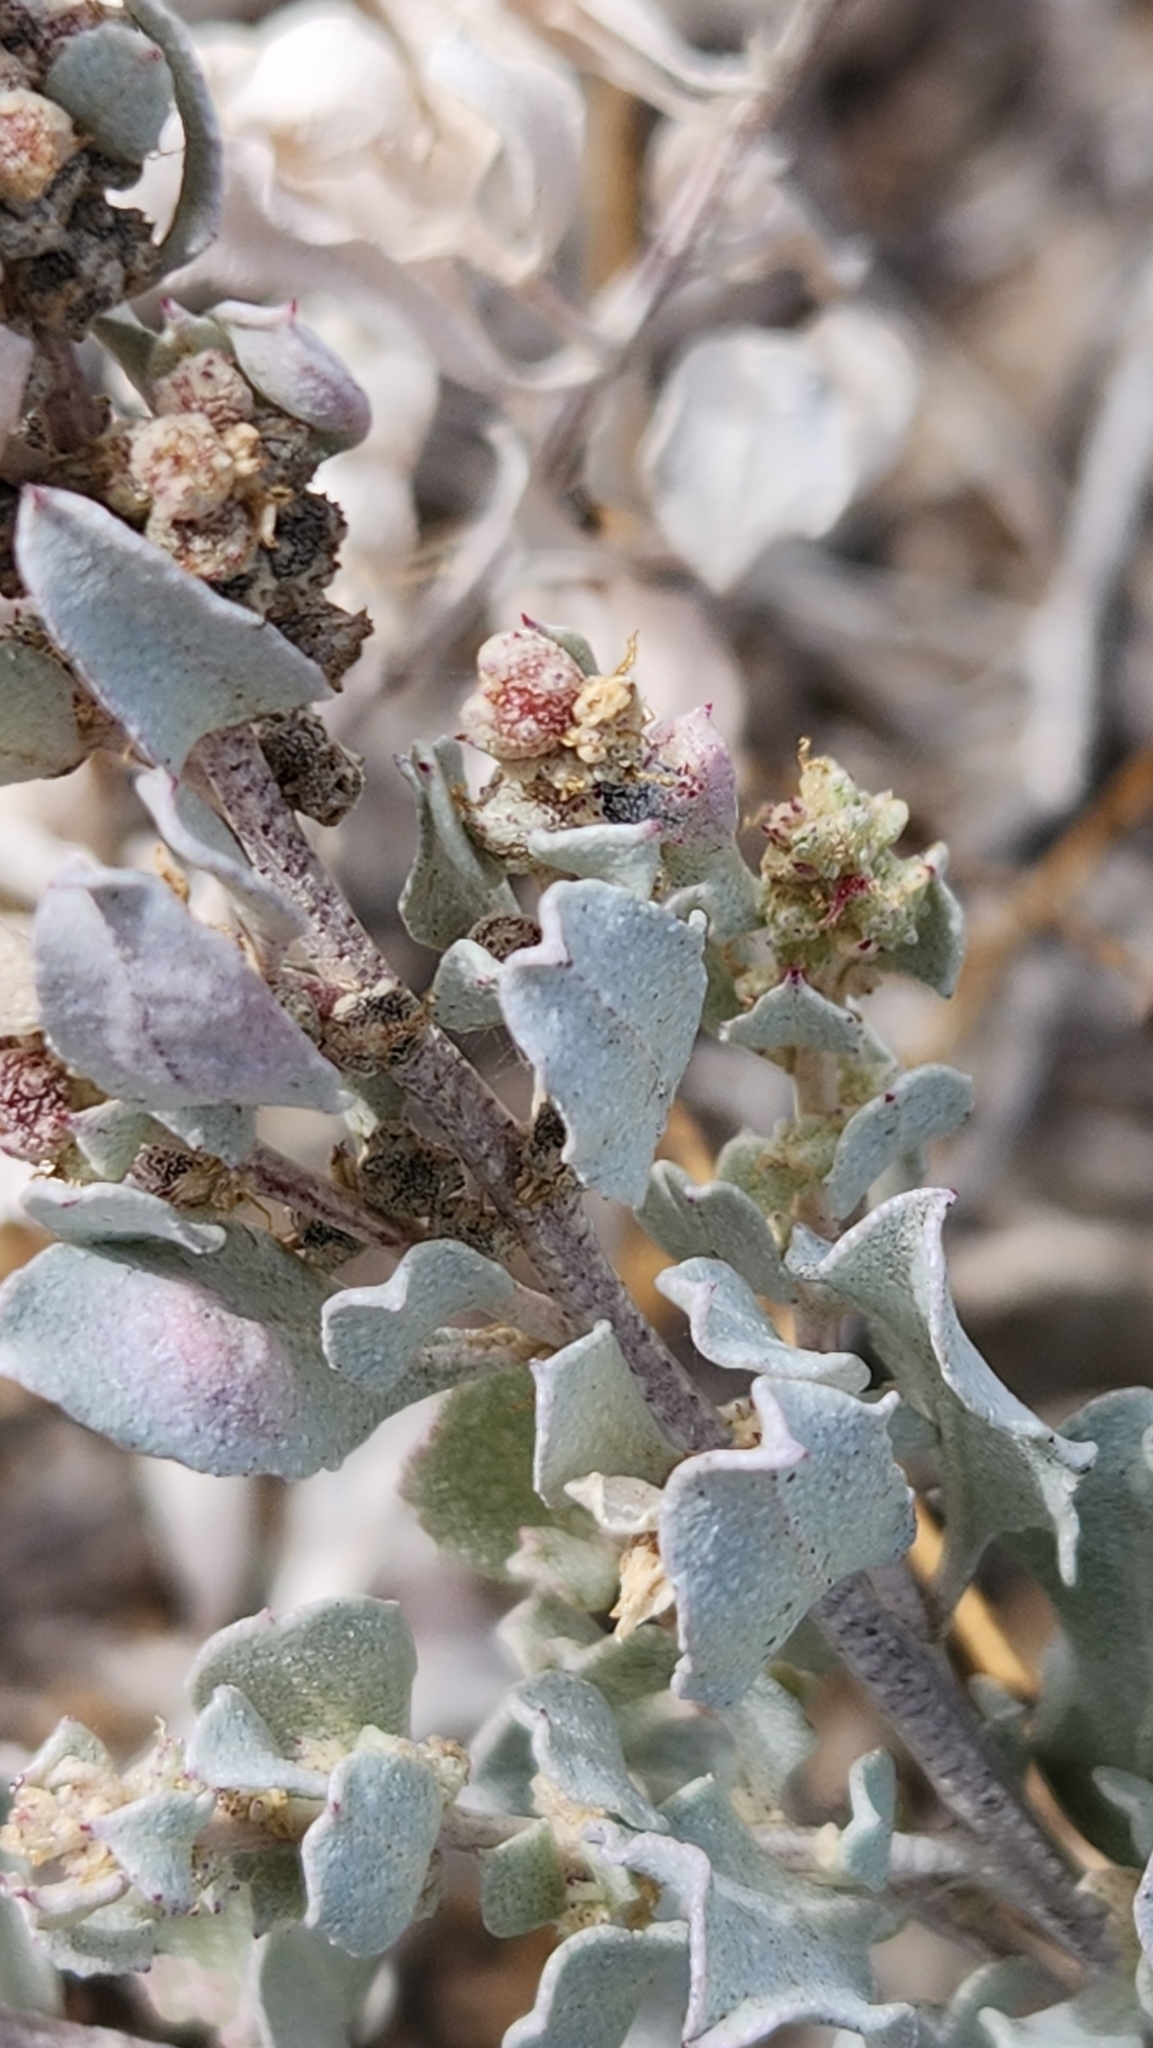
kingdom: Plantae
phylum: Tracheophyta
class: Magnoliopsida
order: Caryophyllales
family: Amaranthaceae
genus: Atriplex
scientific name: Atriplex barclayana
